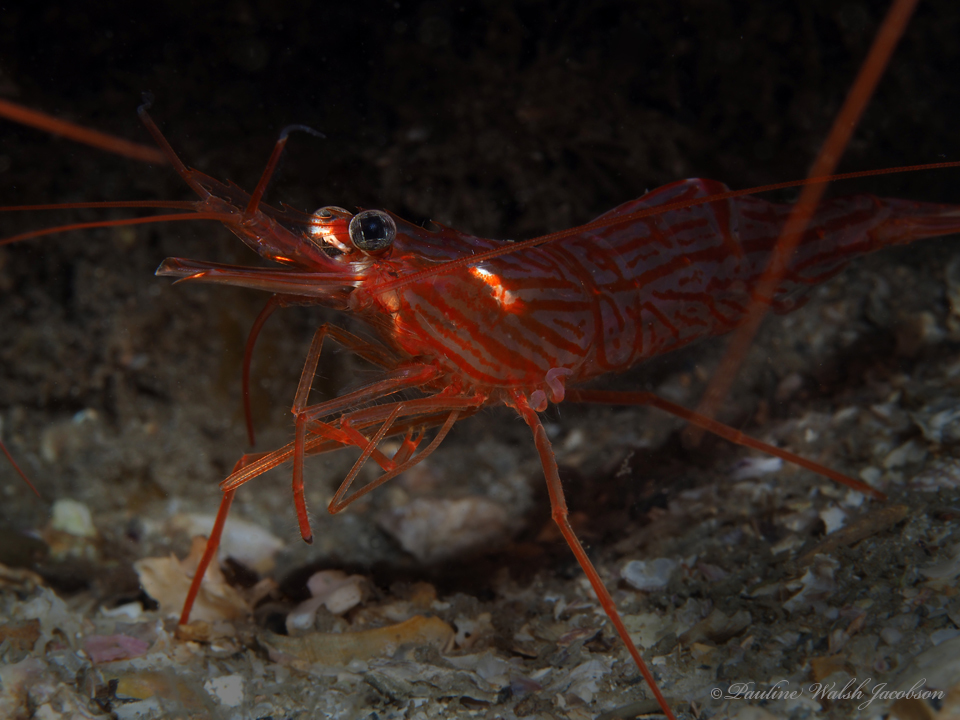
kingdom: Animalia
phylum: Arthropoda
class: Malacostraca
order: Decapoda
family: Lysmatidae
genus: Lysmata
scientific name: Lysmata rafa
